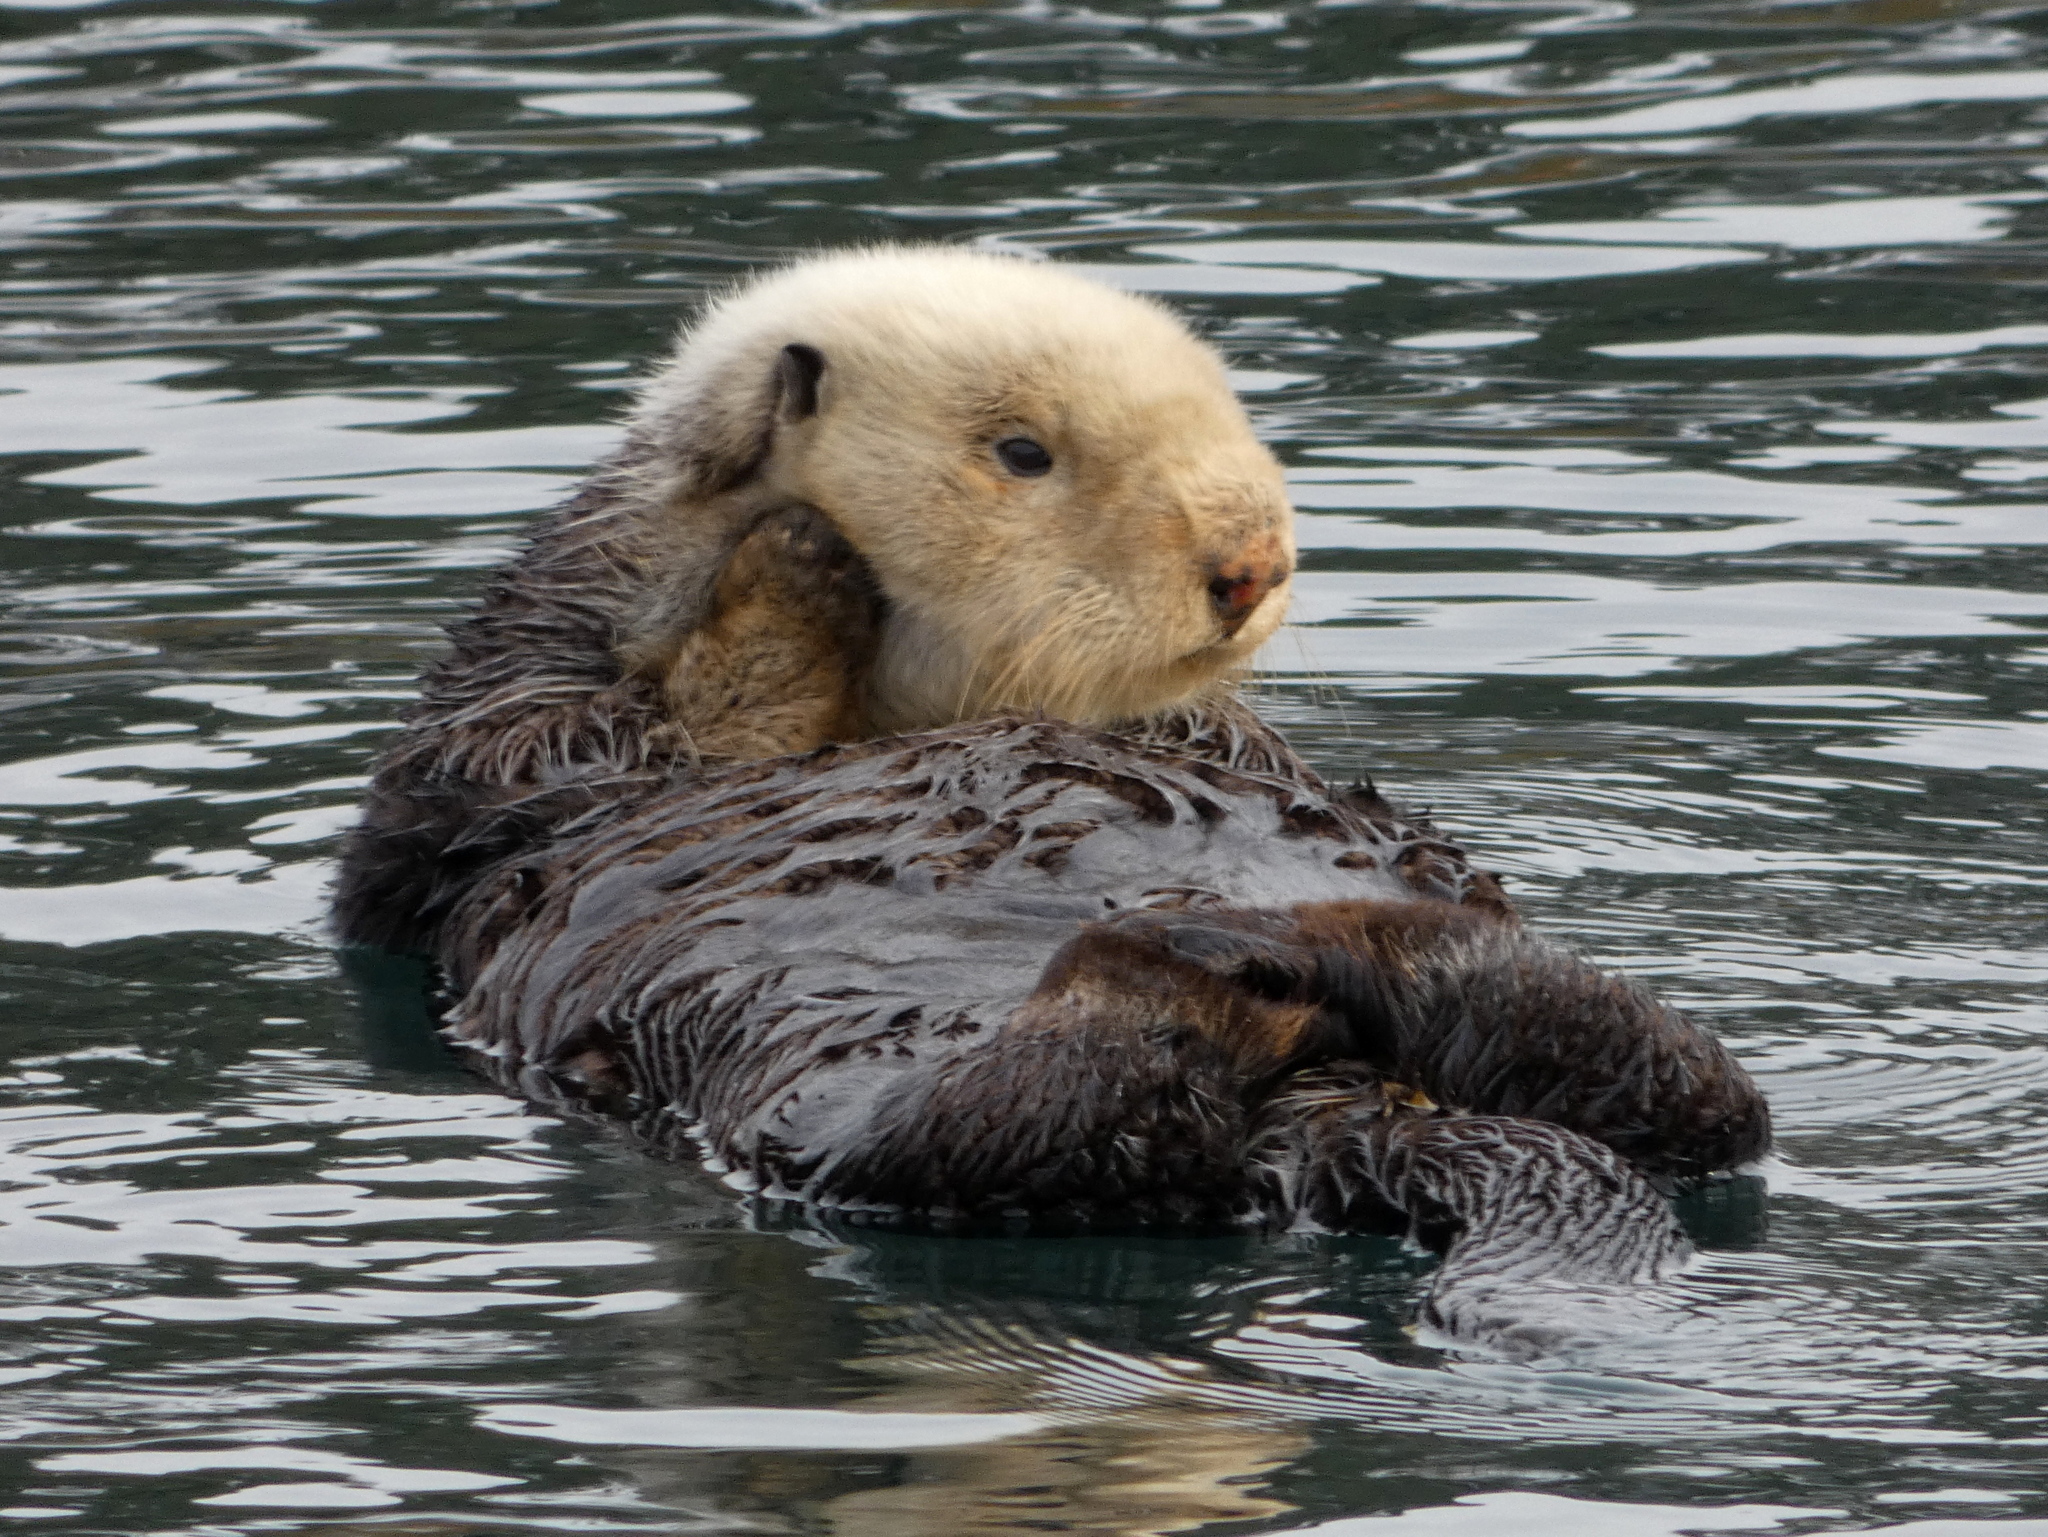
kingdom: Animalia
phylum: Chordata
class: Mammalia
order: Carnivora
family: Mustelidae
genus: Enhydra
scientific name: Enhydra lutris
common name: Sea otter
